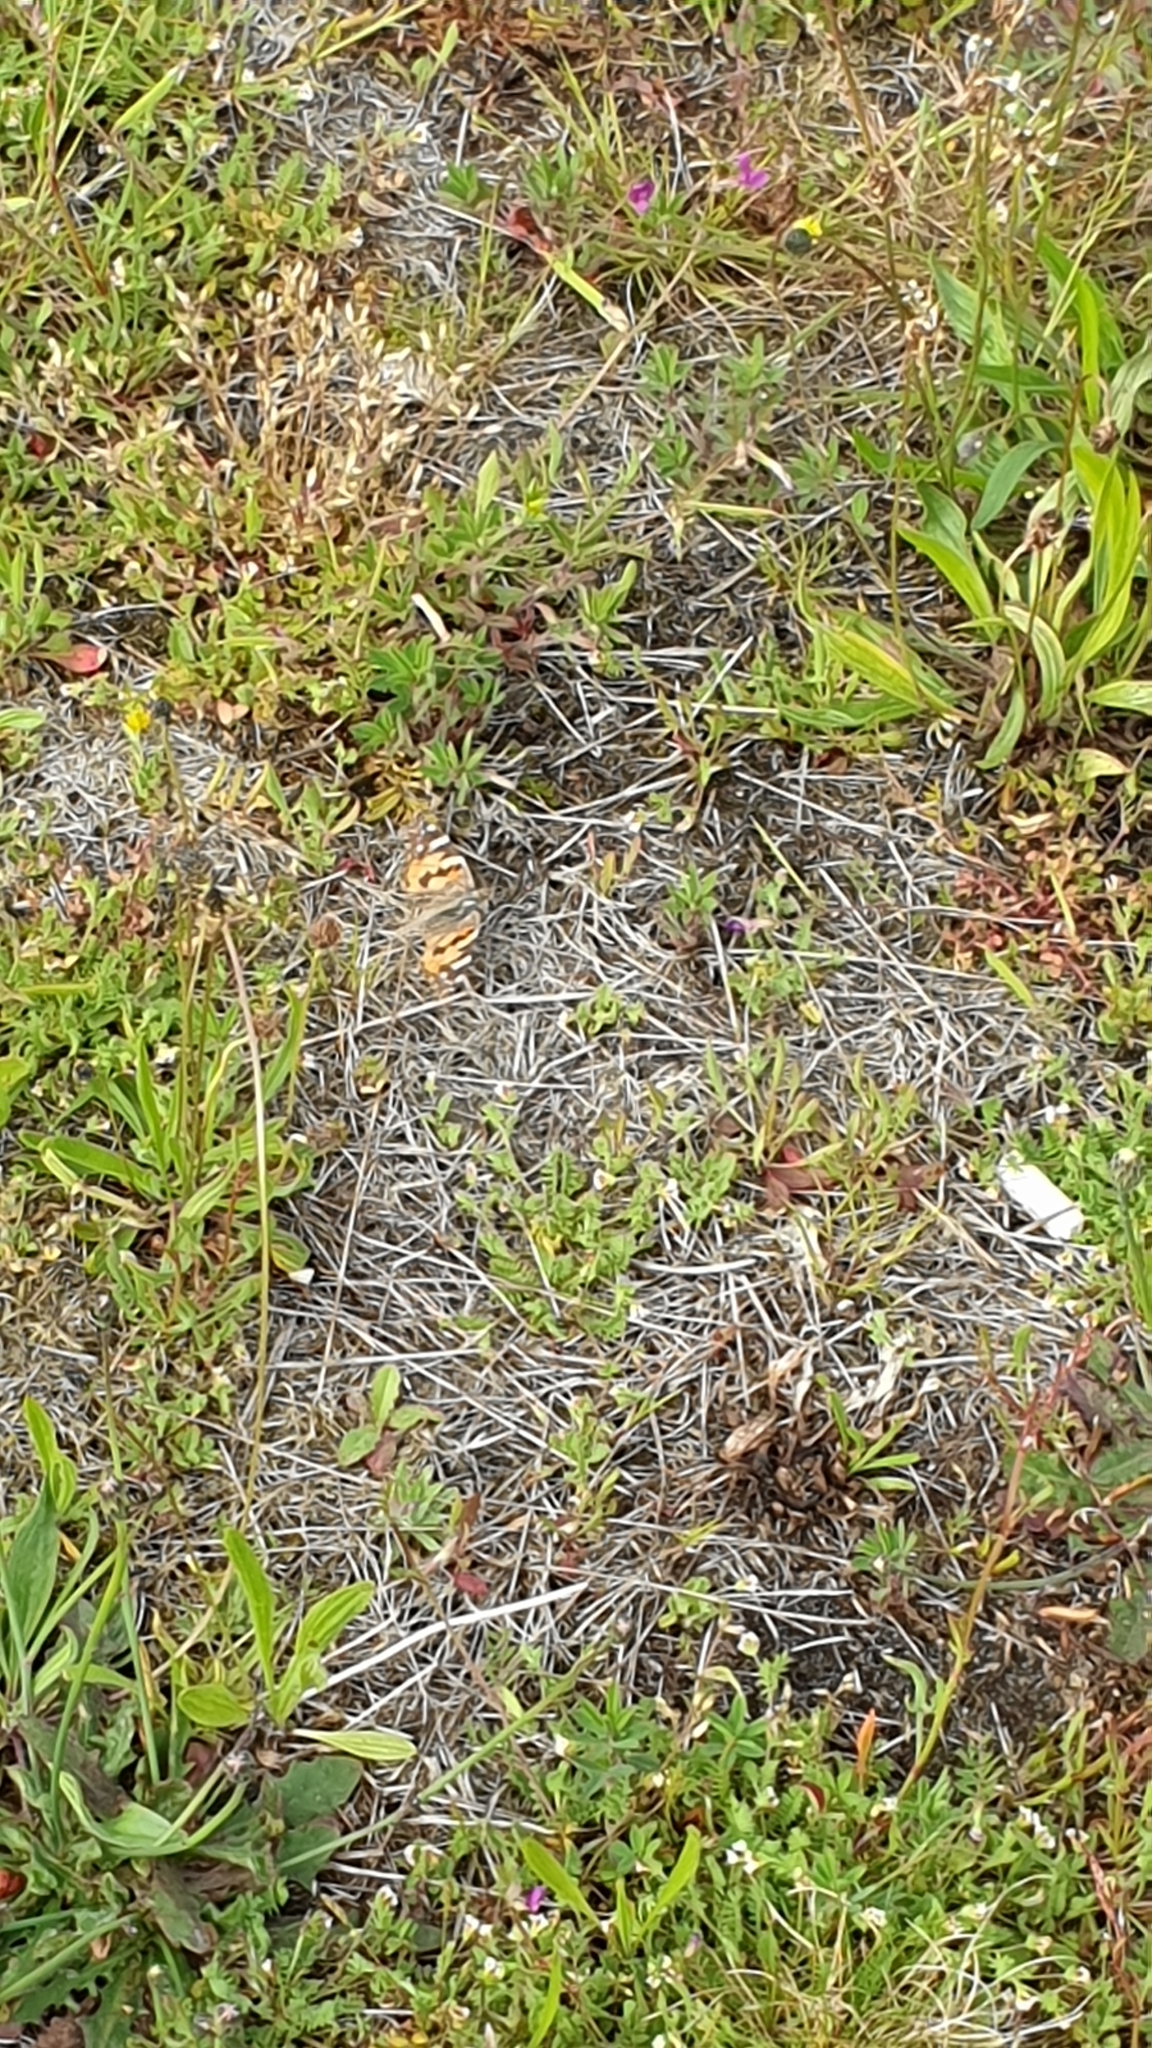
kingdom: Animalia
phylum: Arthropoda
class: Insecta
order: Lepidoptera
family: Nymphalidae
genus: Vanessa
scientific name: Vanessa cardui
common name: Painted lady
